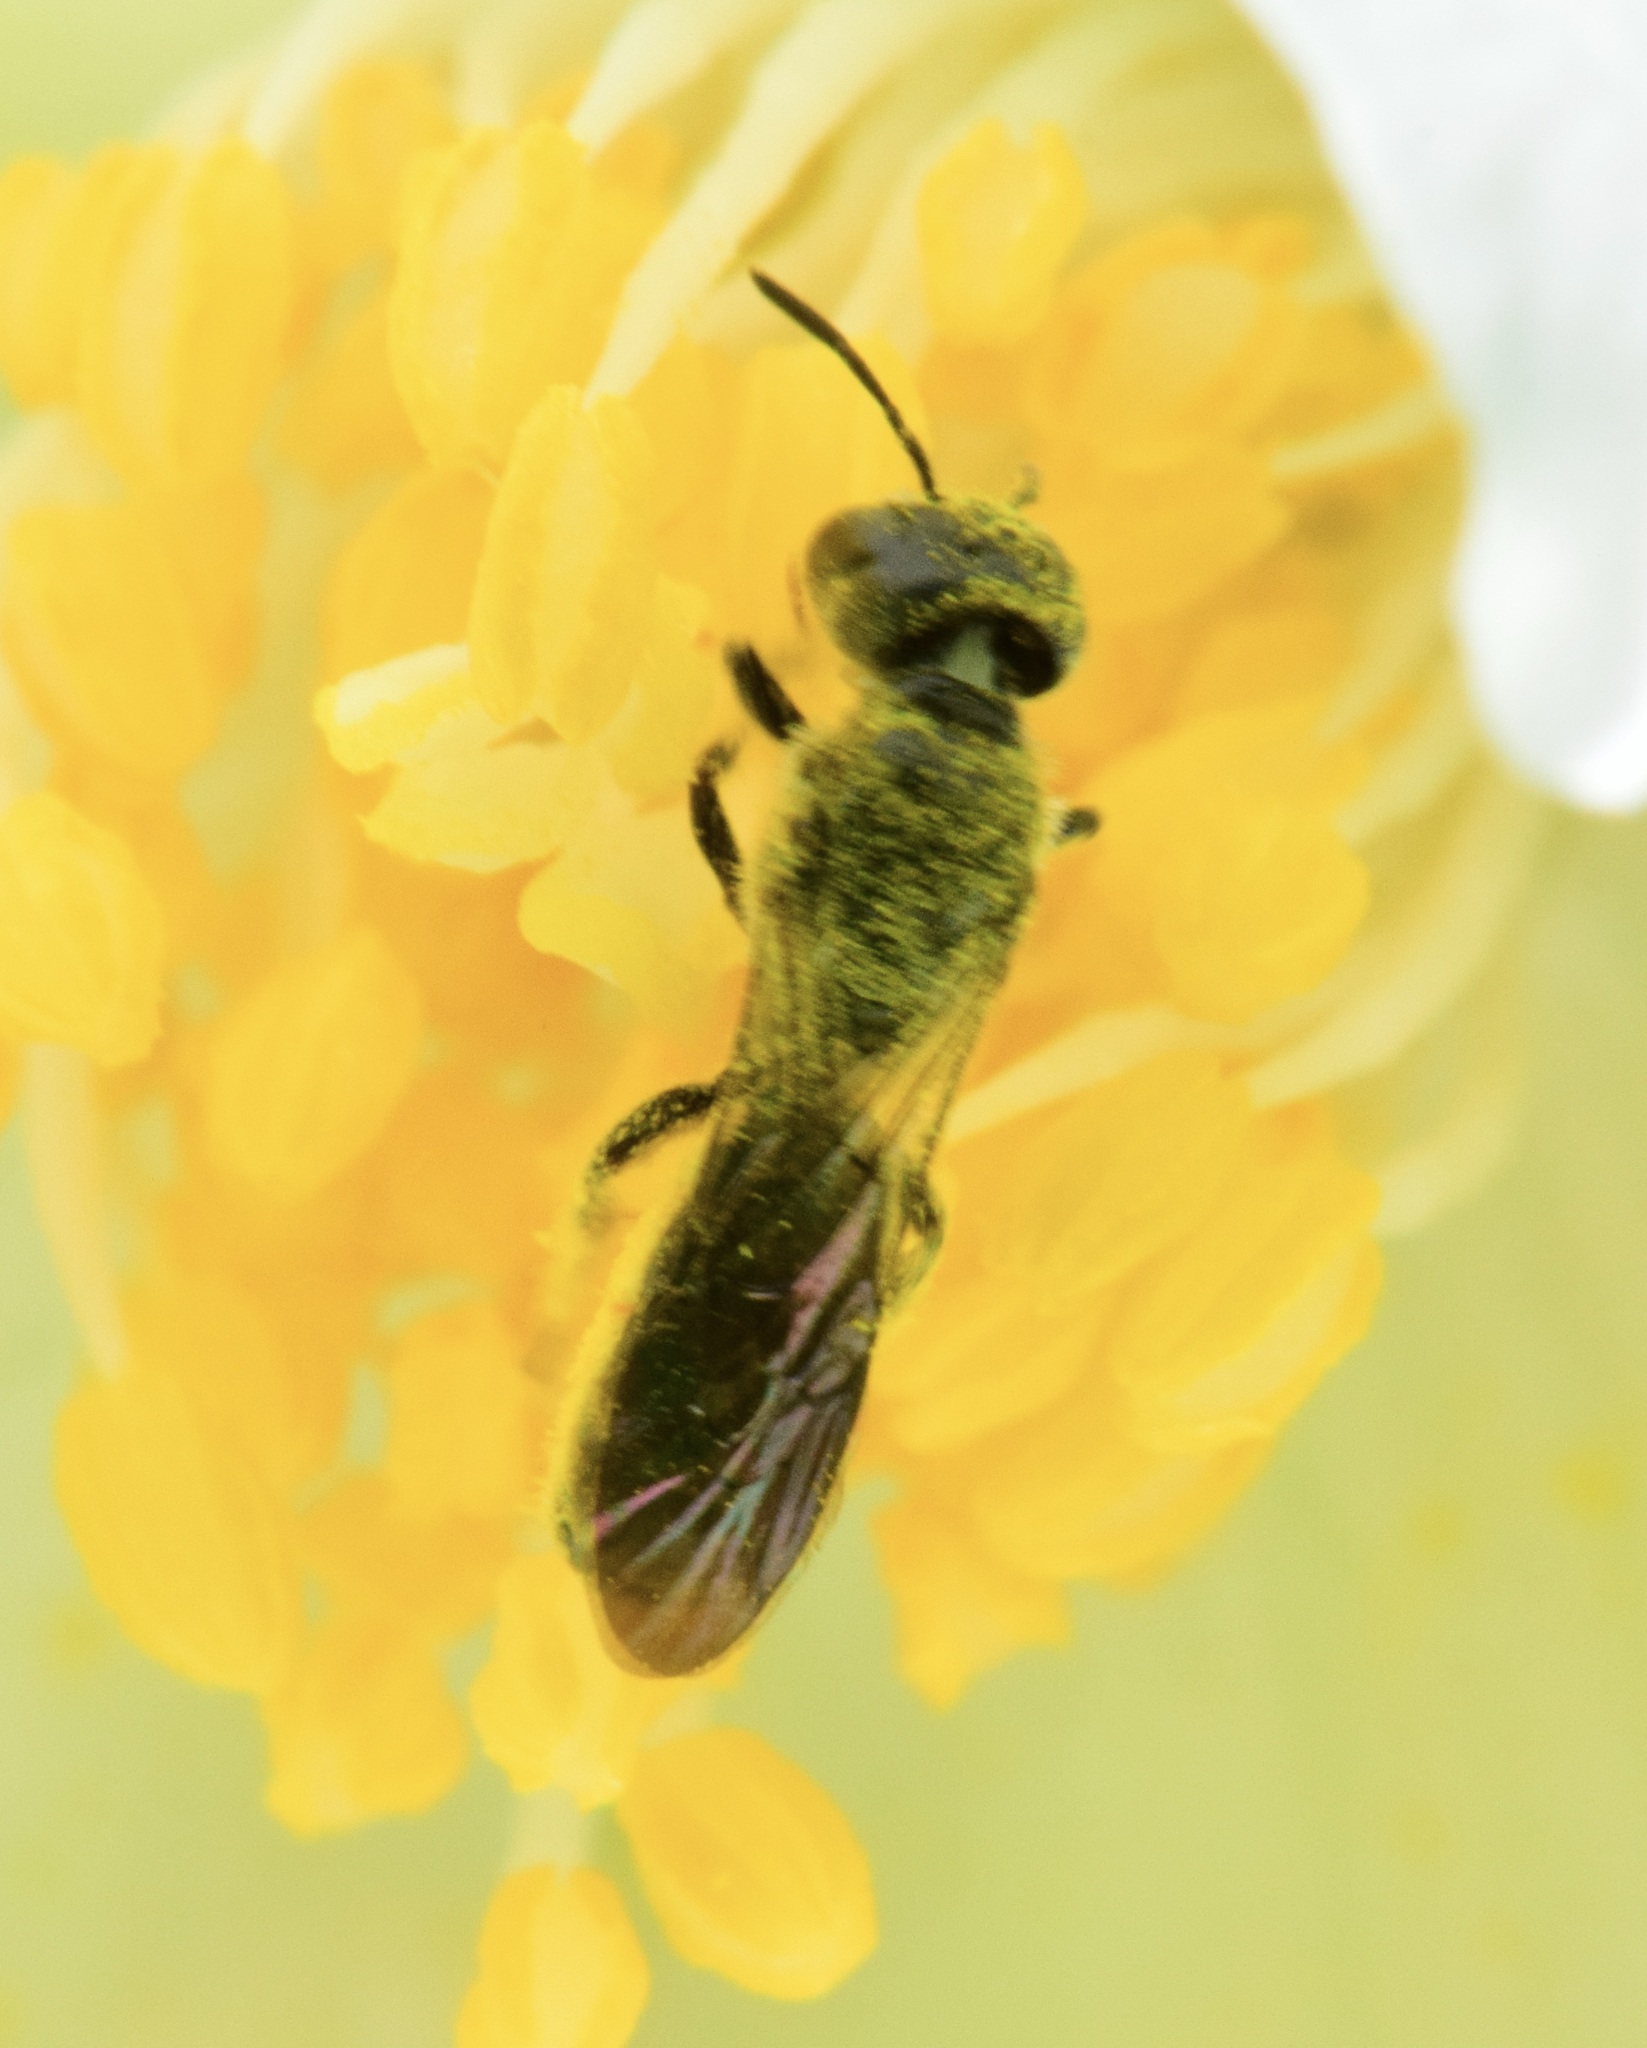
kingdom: Animalia
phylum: Arthropoda
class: Insecta
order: Hymenoptera
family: Megachilidae
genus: Chelostoma
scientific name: Chelostoma philadelphi
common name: Mock-orange scissor bee
